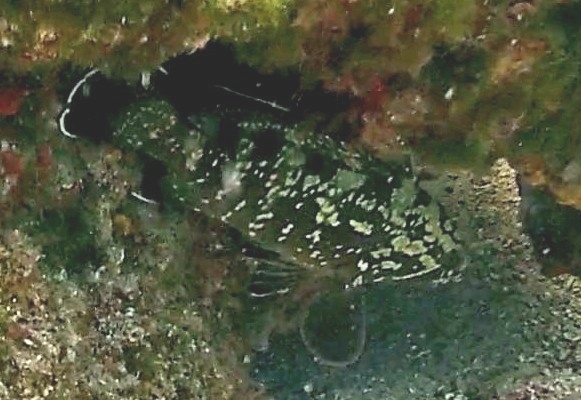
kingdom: Animalia
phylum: Chordata
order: Perciformes
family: Serranidae
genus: Epinephelus
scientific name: Epinephelus marginatus
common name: Dusky grouper
